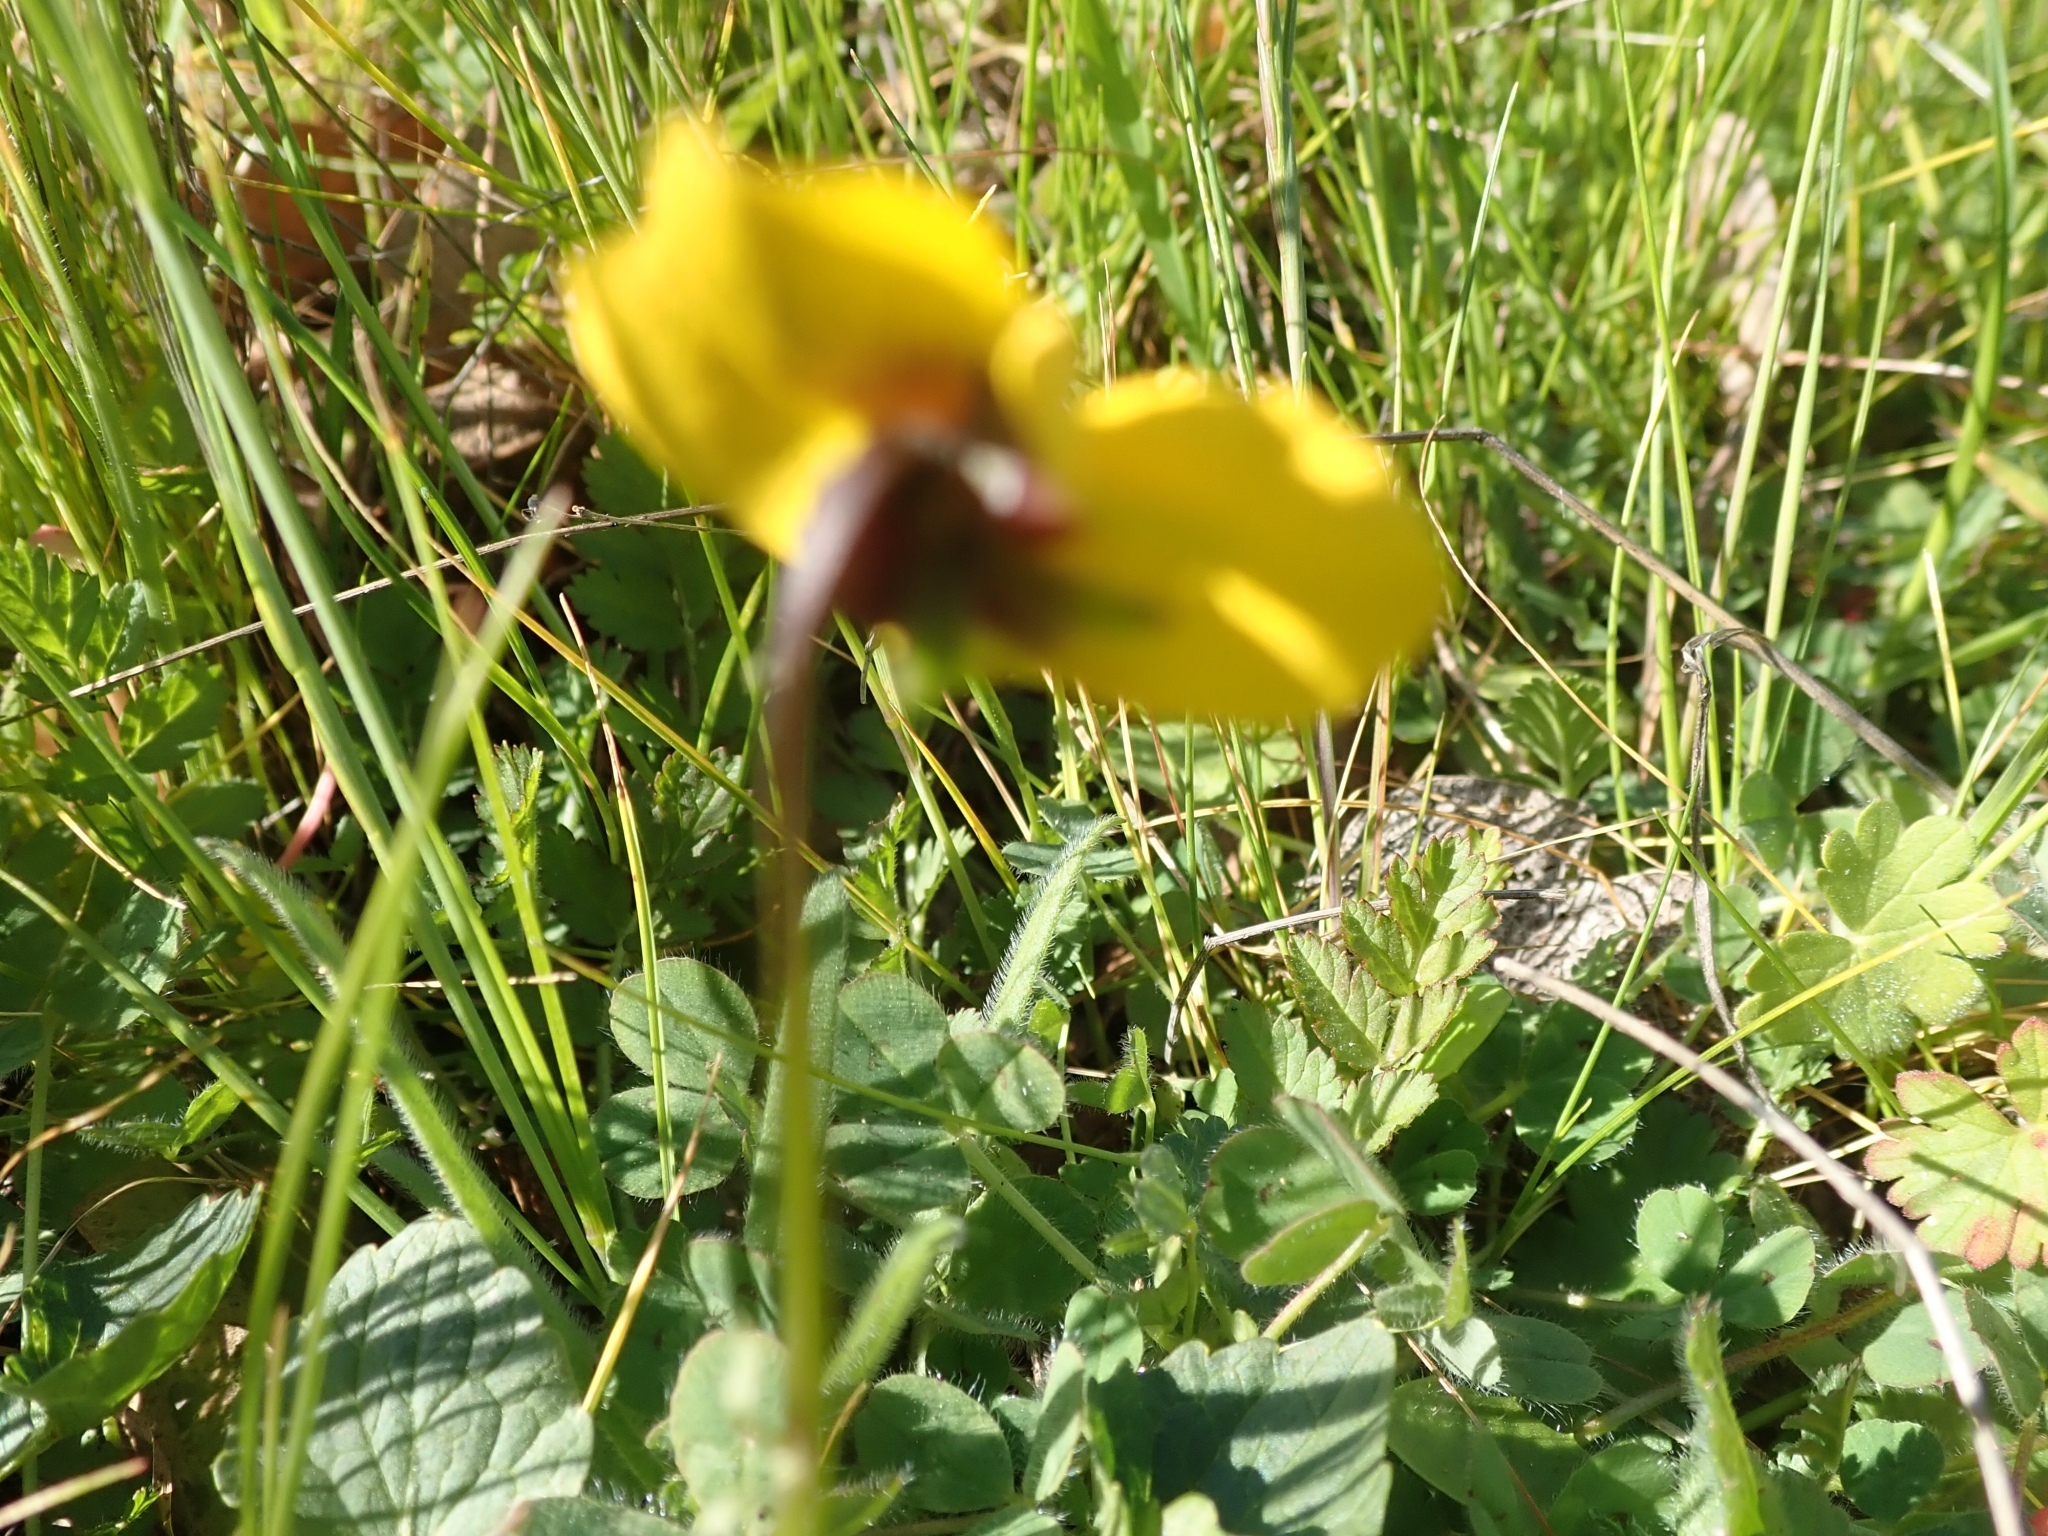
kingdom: Plantae
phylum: Tracheophyta
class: Magnoliopsida
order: Malpighiales
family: Violaceae
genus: Viola
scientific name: Viola pedunculata
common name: California golden violet
